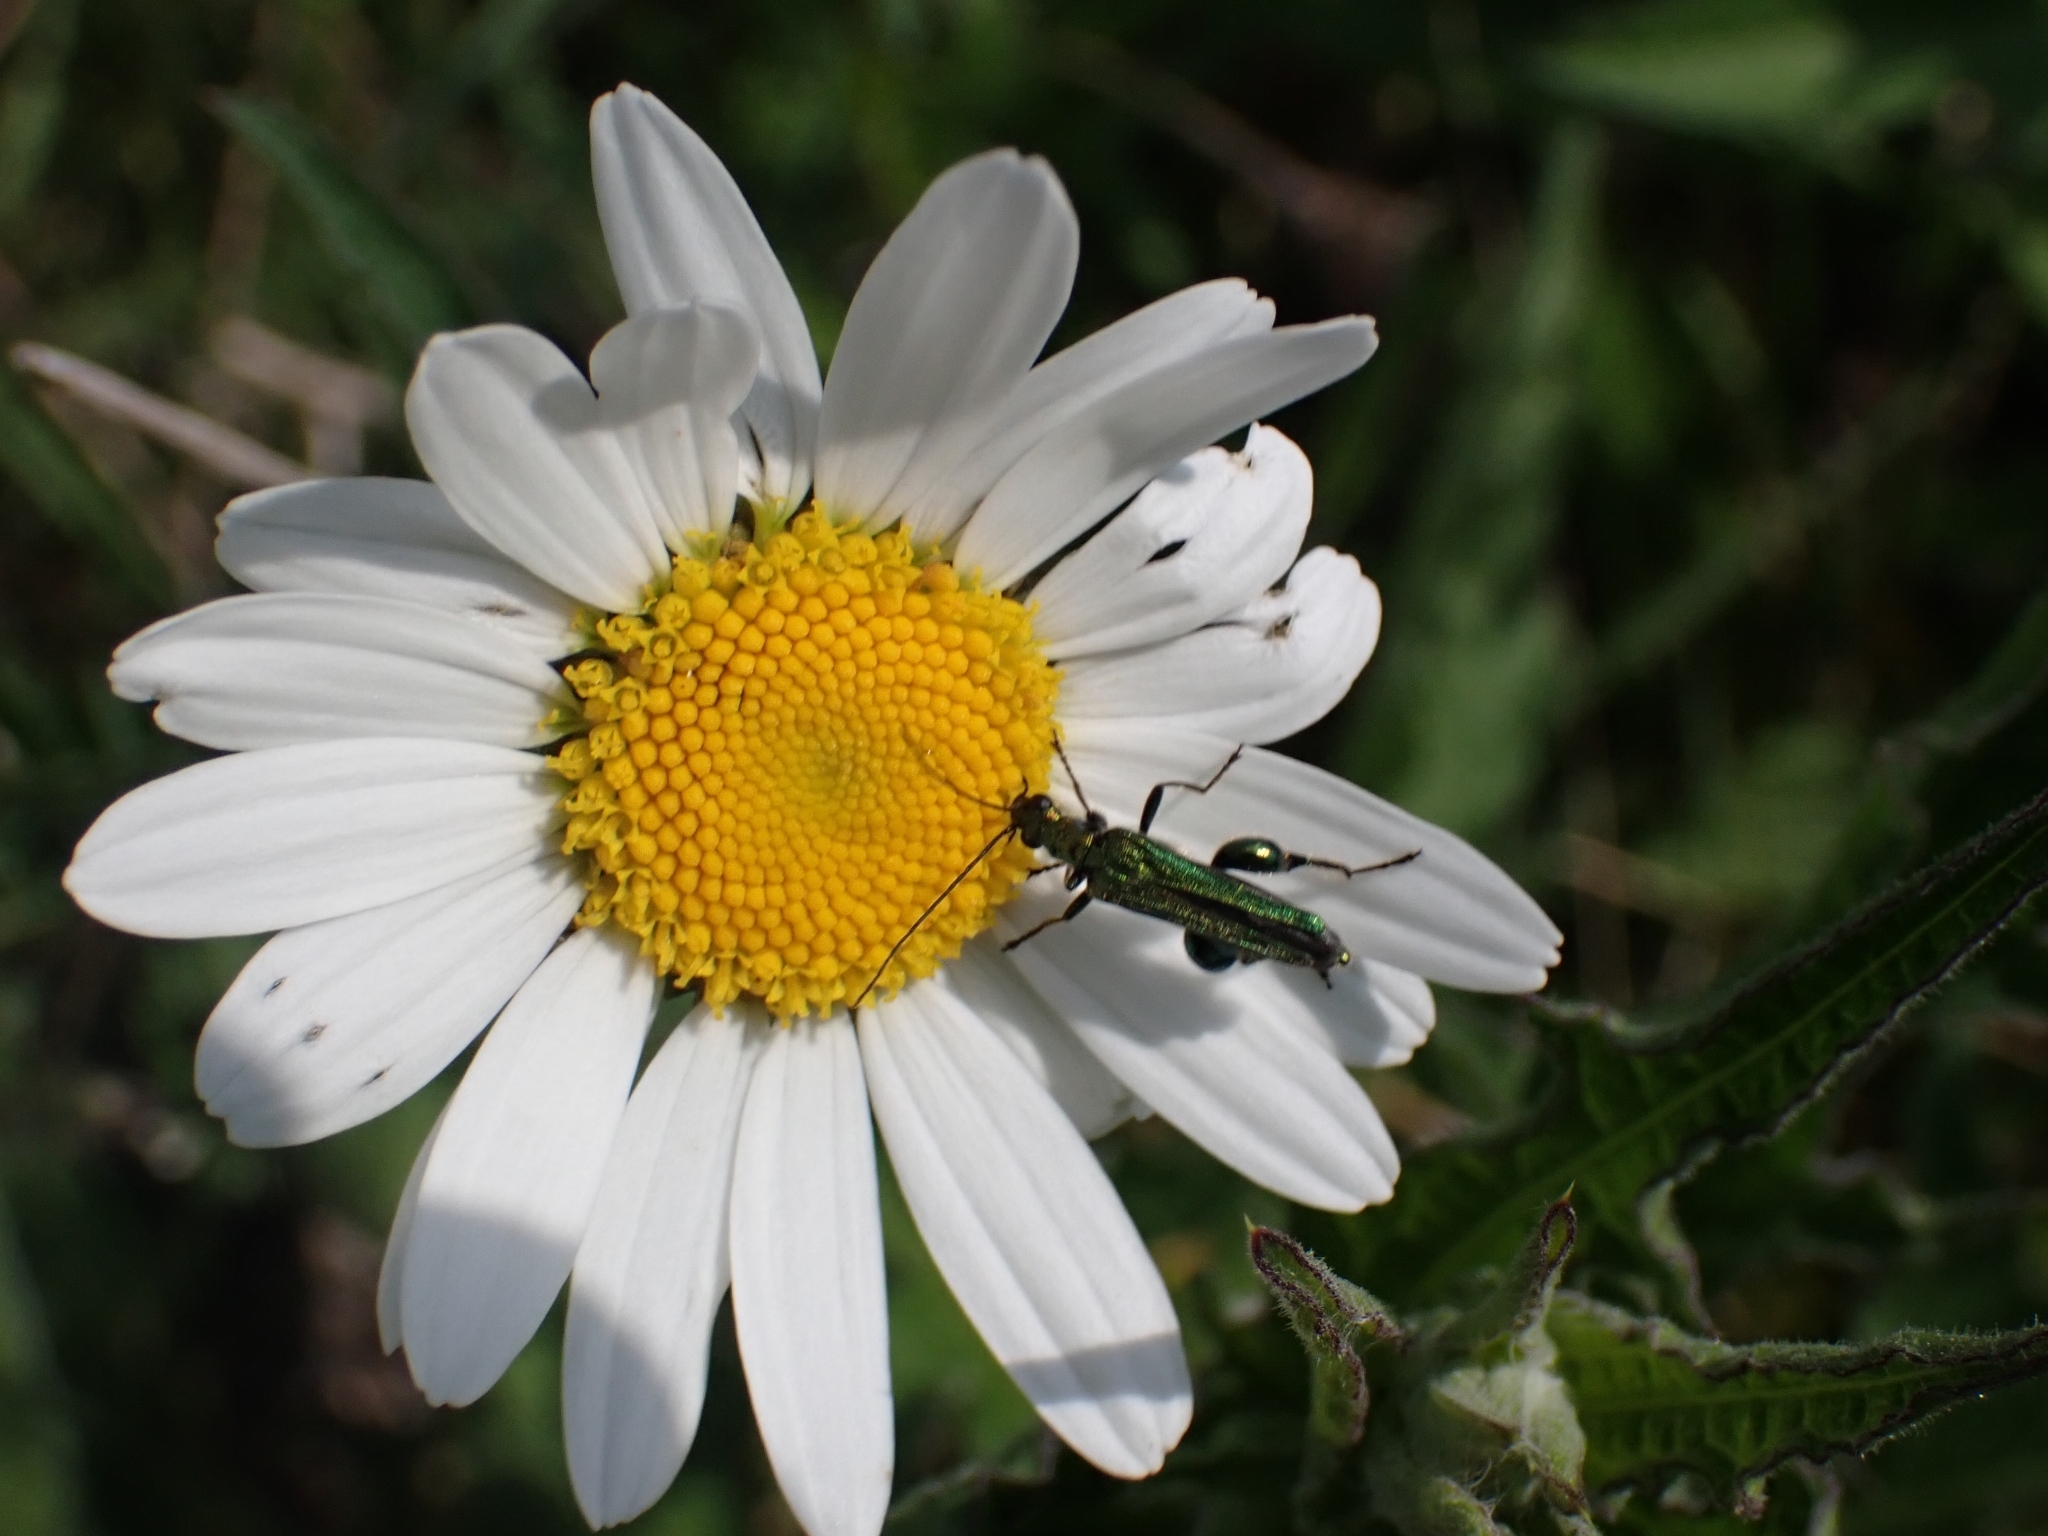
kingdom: Animalia
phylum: Arthropoda
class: Insecta
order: Coleoptera
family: Oedemeridae
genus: Oedemera
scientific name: Oedemera nobilis
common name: Swollen-thighed beetle
